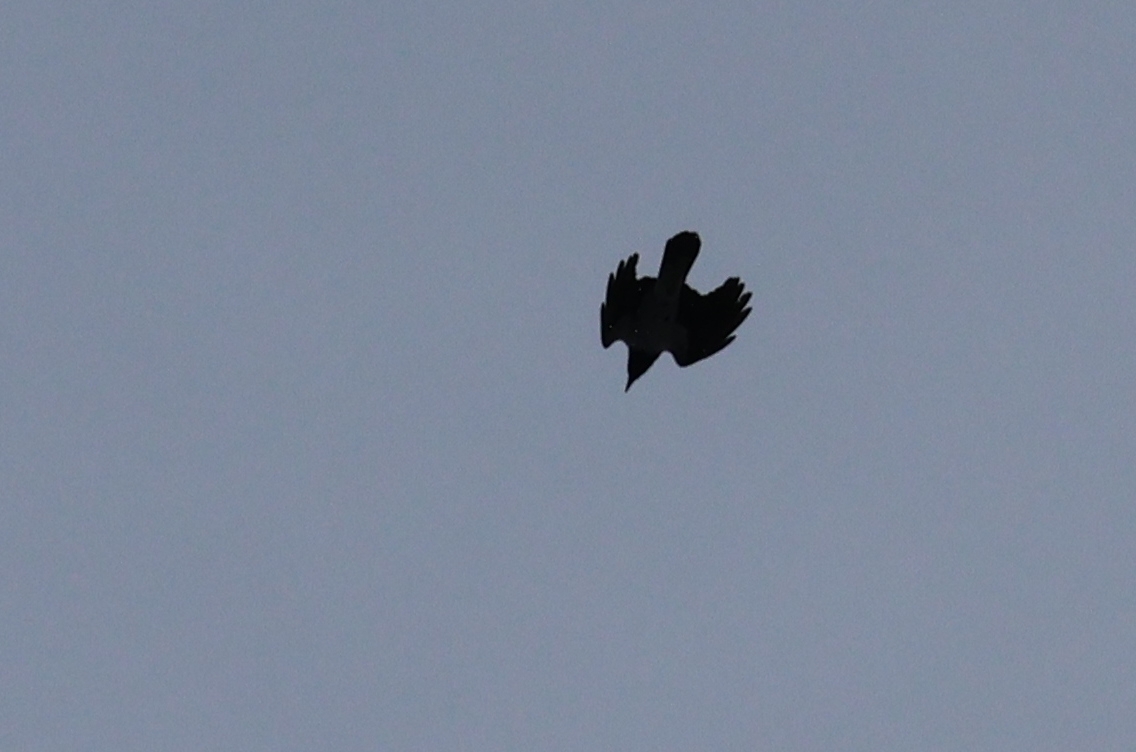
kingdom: Animalia
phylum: Chordata
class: Aves
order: Passeriformes
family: Corvidae
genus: Corvus
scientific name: Corvus cornix
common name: Hooded crow
